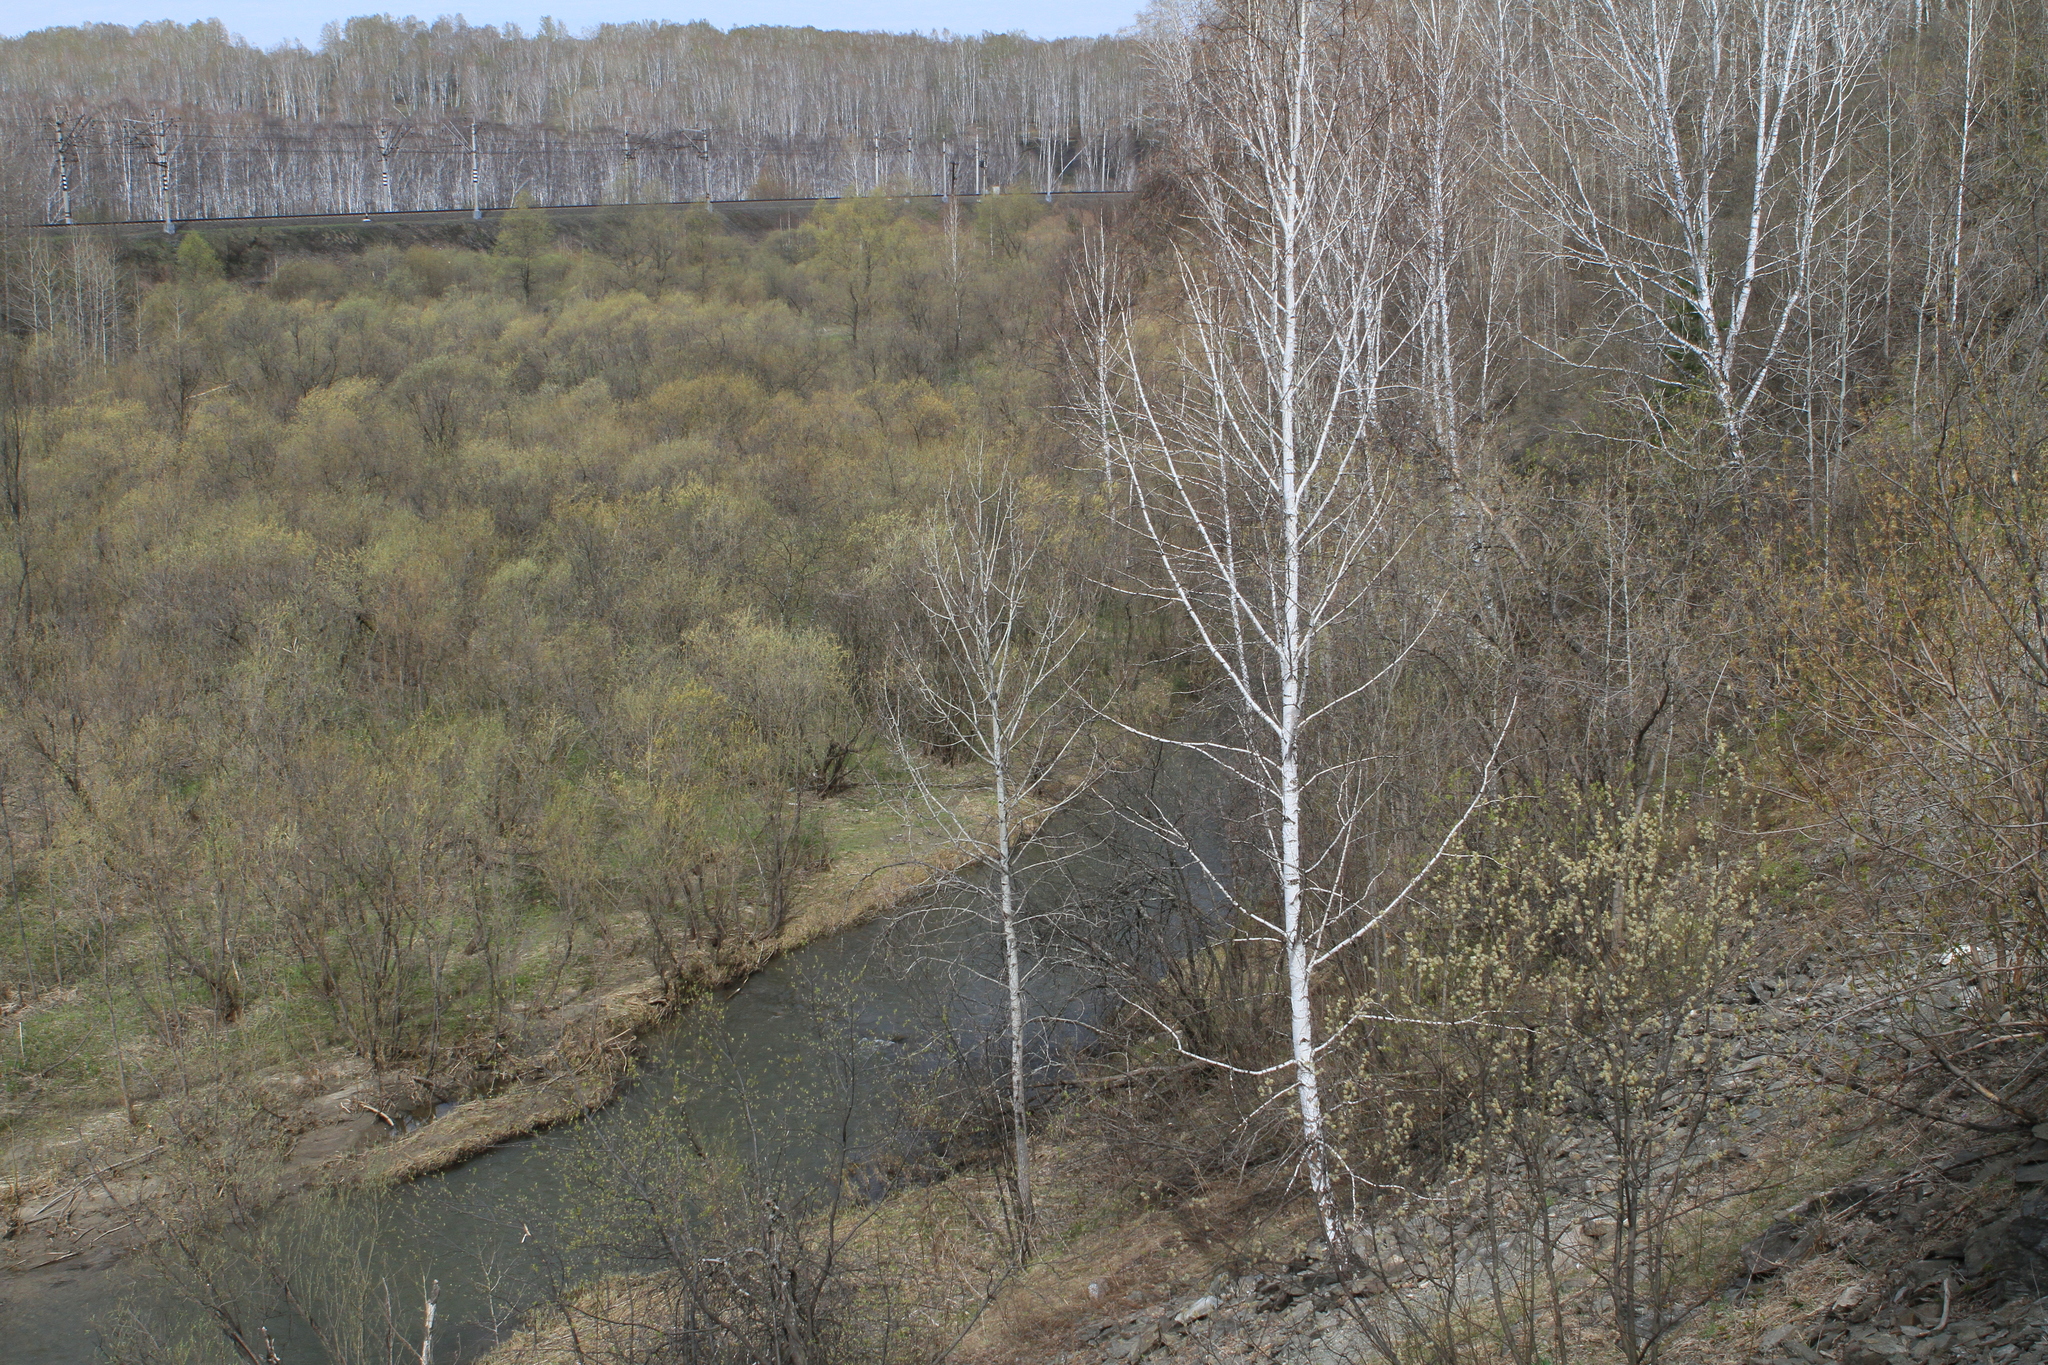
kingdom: Plantae
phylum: Tracheophyta
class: Magnoliopsida
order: Fagales
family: Betulaceae
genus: Betula
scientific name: Betula pendula
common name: Silver birch
